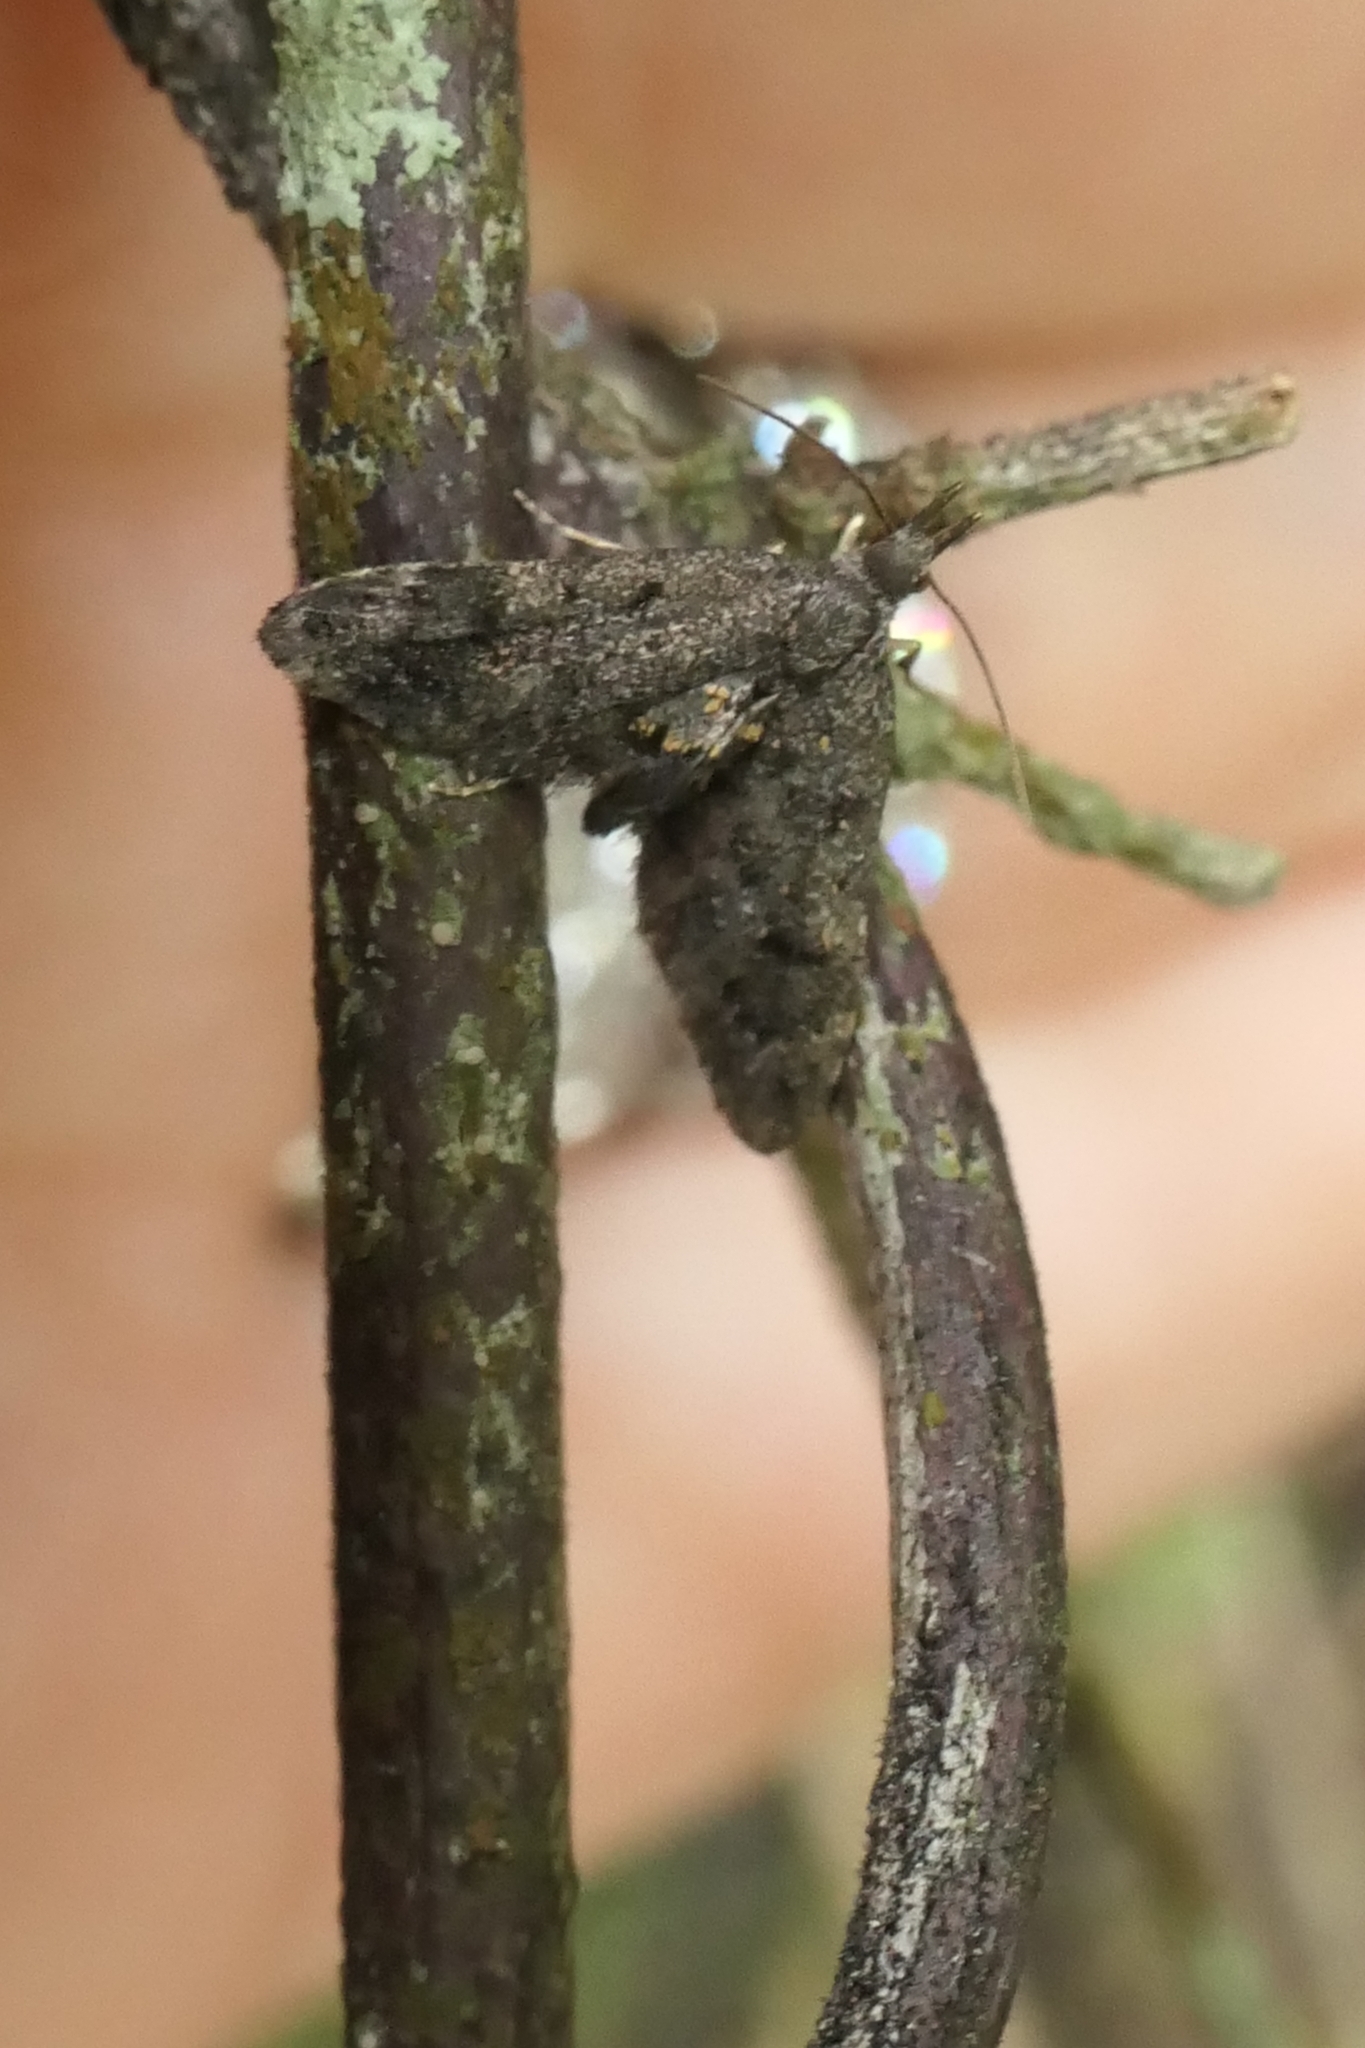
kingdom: Animalia
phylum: Arthropoda
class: Insecta
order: Lepidoptera
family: Copromorphidae
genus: Isonomeutis
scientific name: Isonomeutis amauropa
